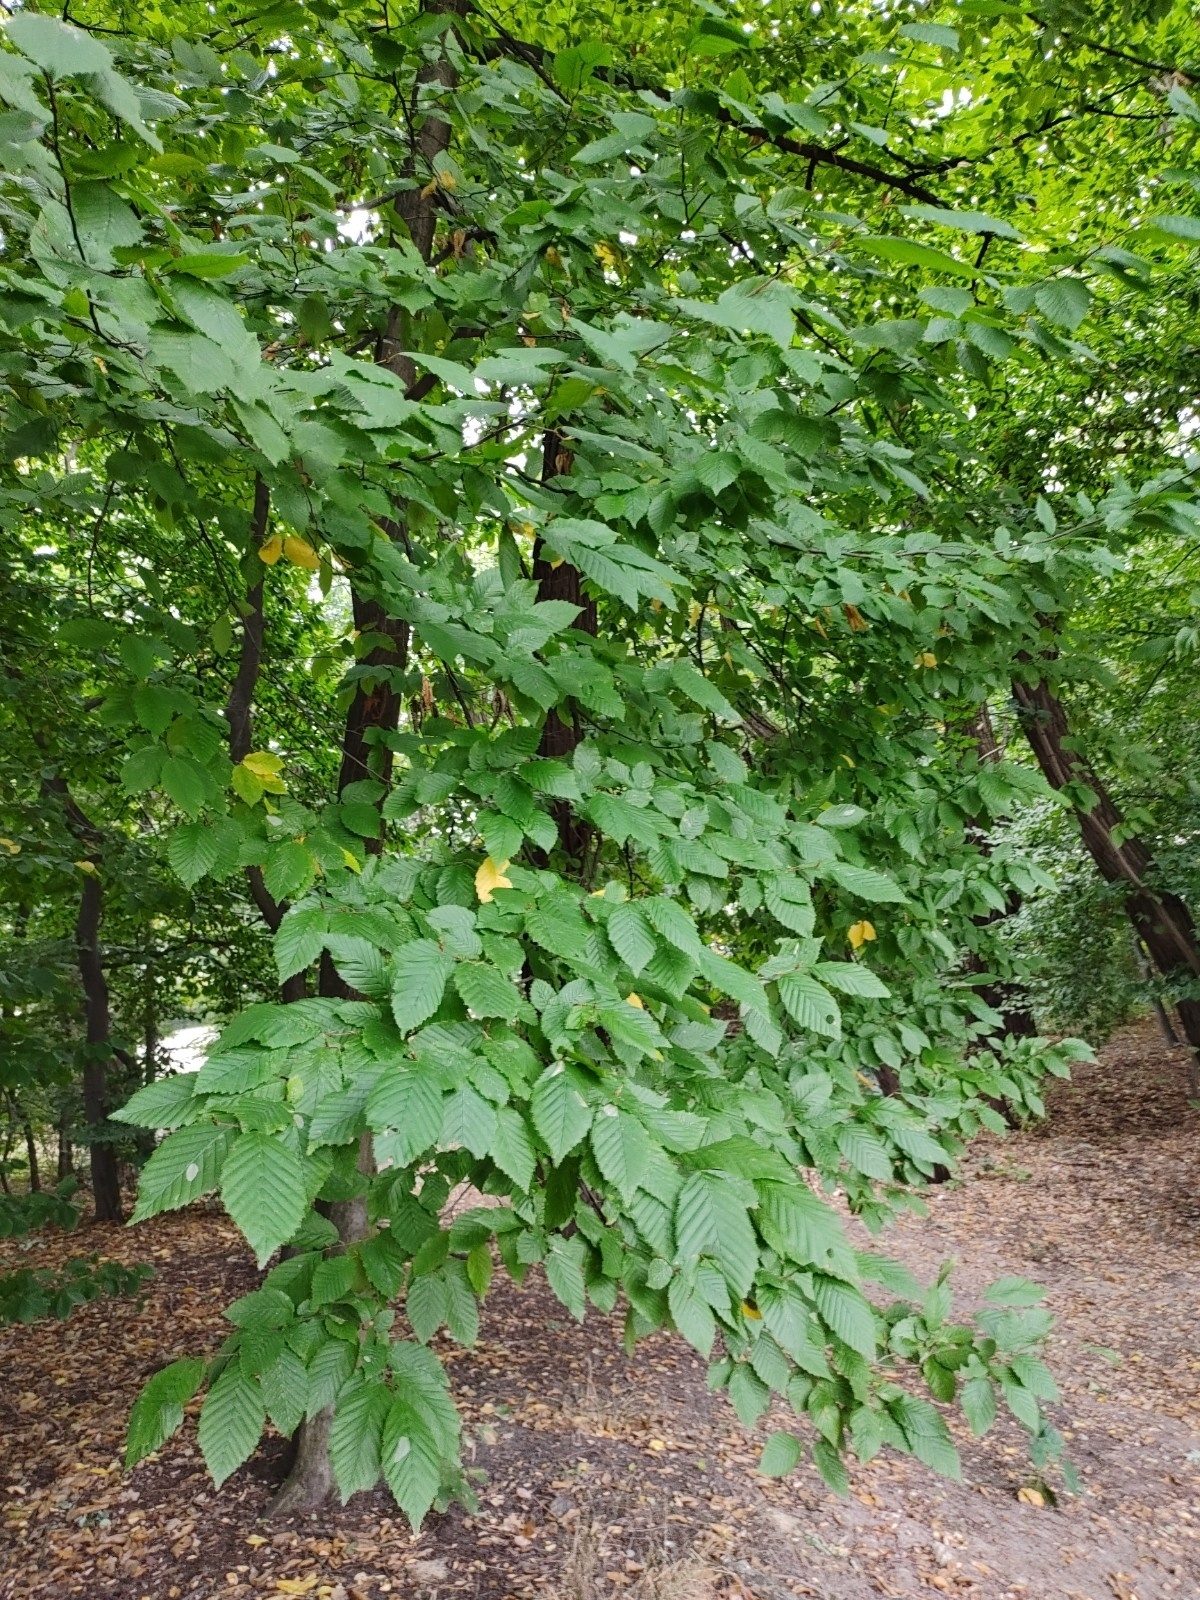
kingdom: Plantae
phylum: Tracheophyta
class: Magnoliopsida
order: Fagales
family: Betulaceae
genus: Carpinus
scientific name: Carpinus betulus
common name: Hornbeam
